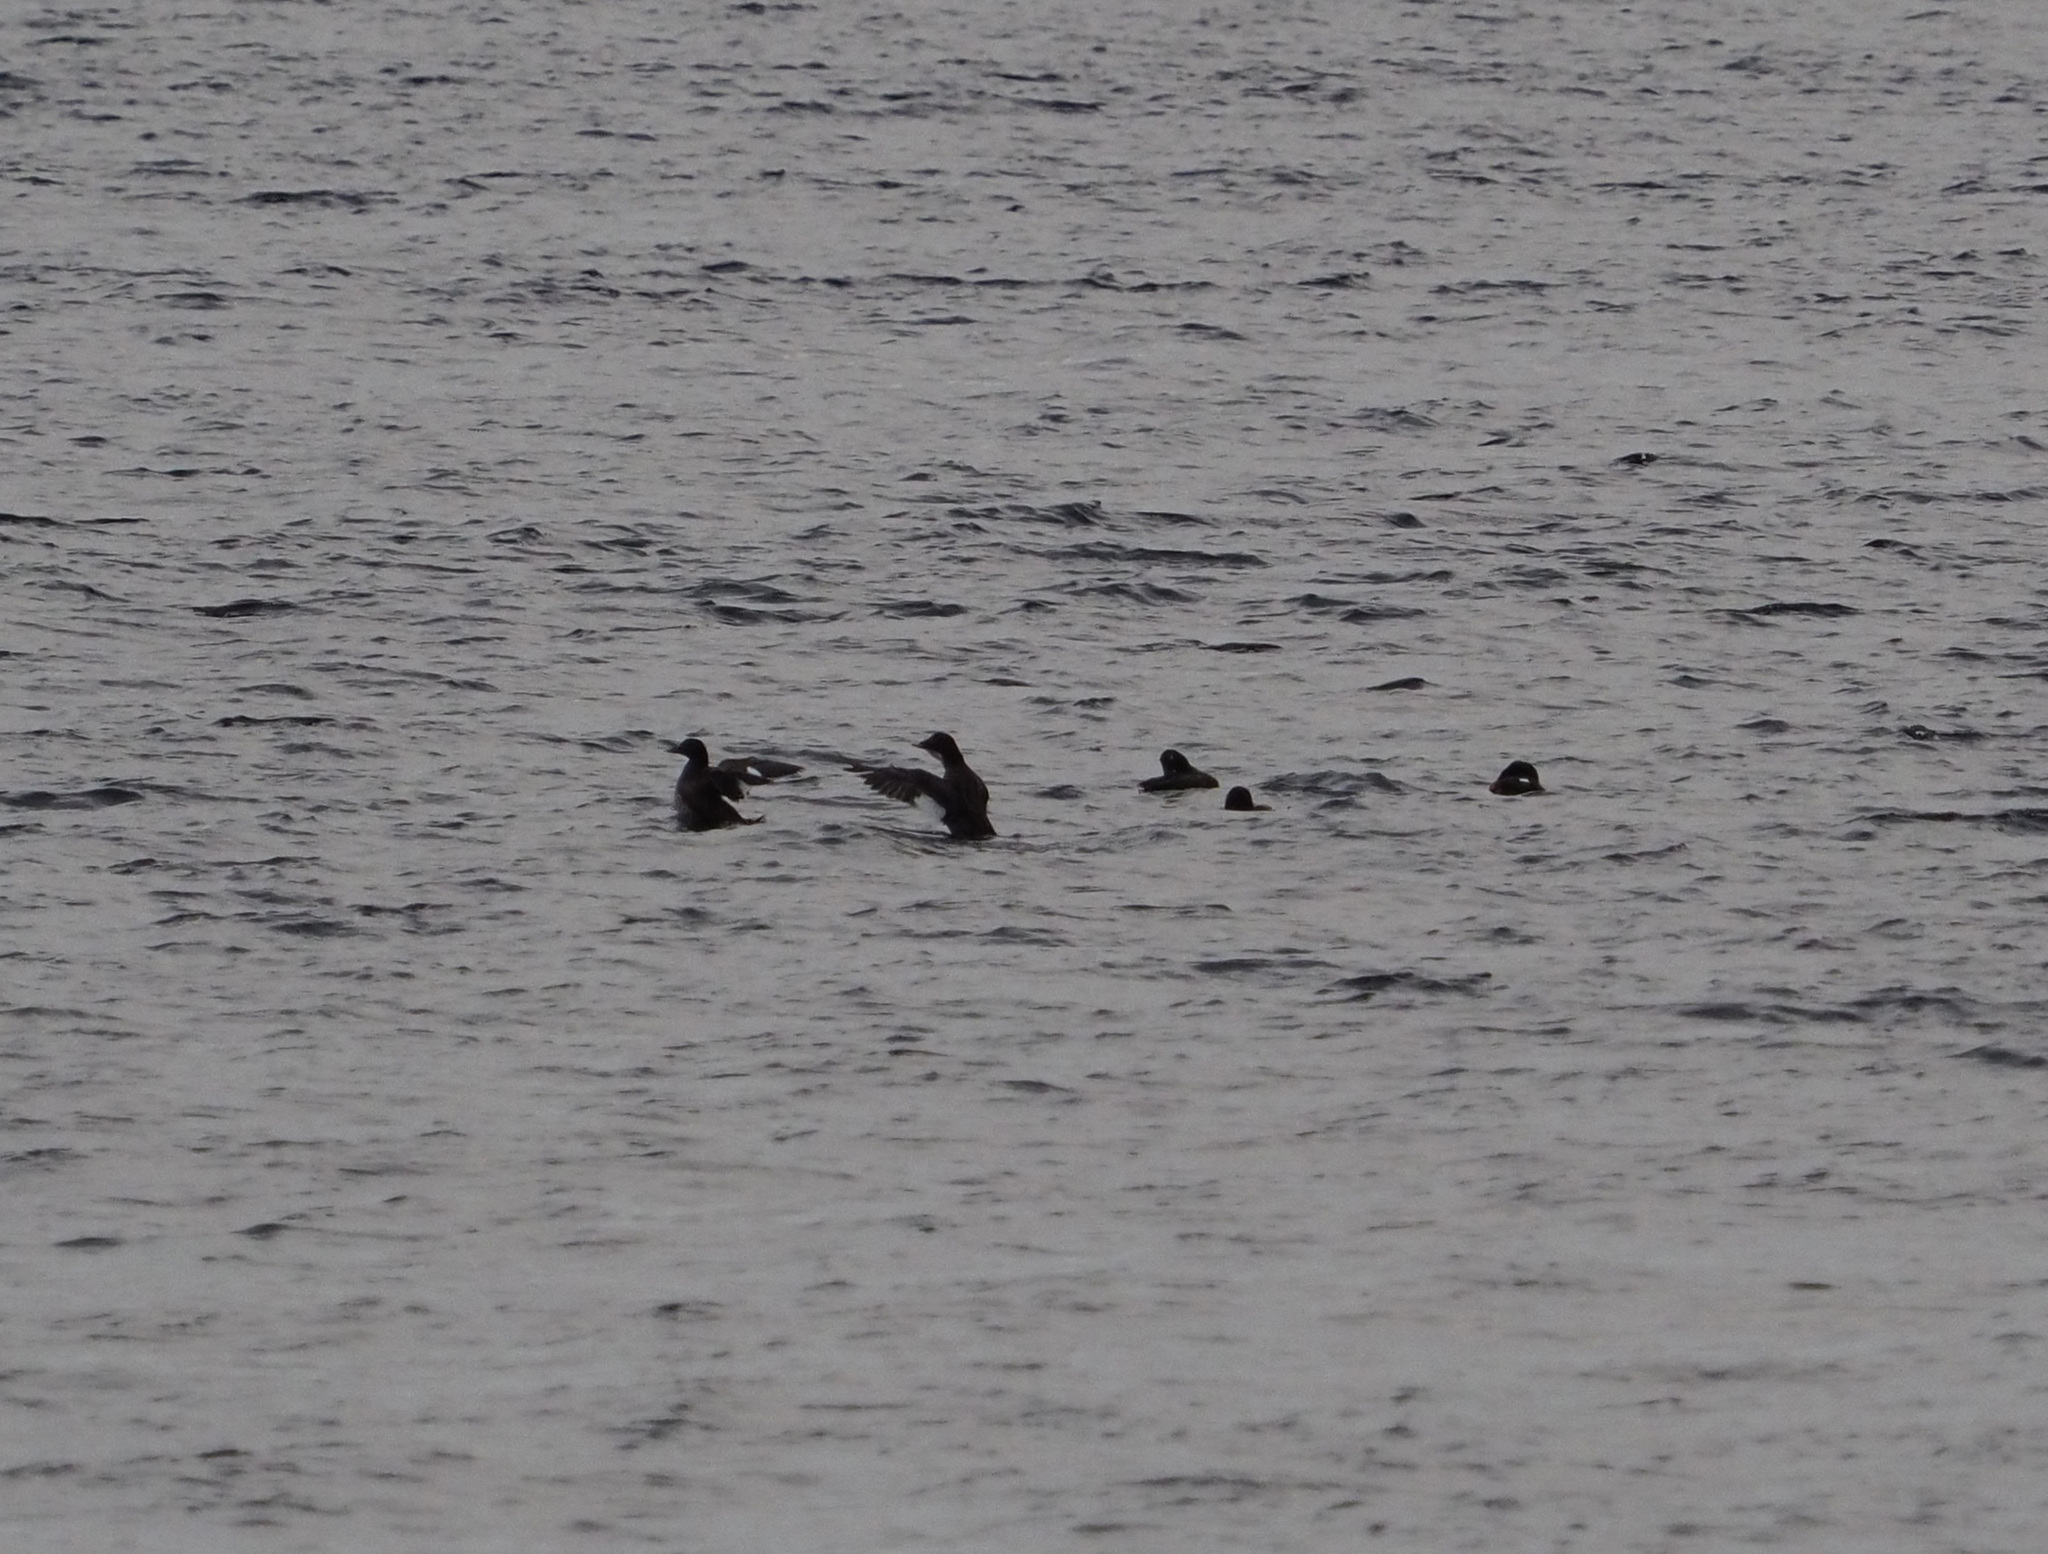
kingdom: Animalia
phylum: Chordata
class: Aves
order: Anseriformes
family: Anatidae
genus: Melanitta
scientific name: Melanitta deglandi
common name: White-winged scoter
